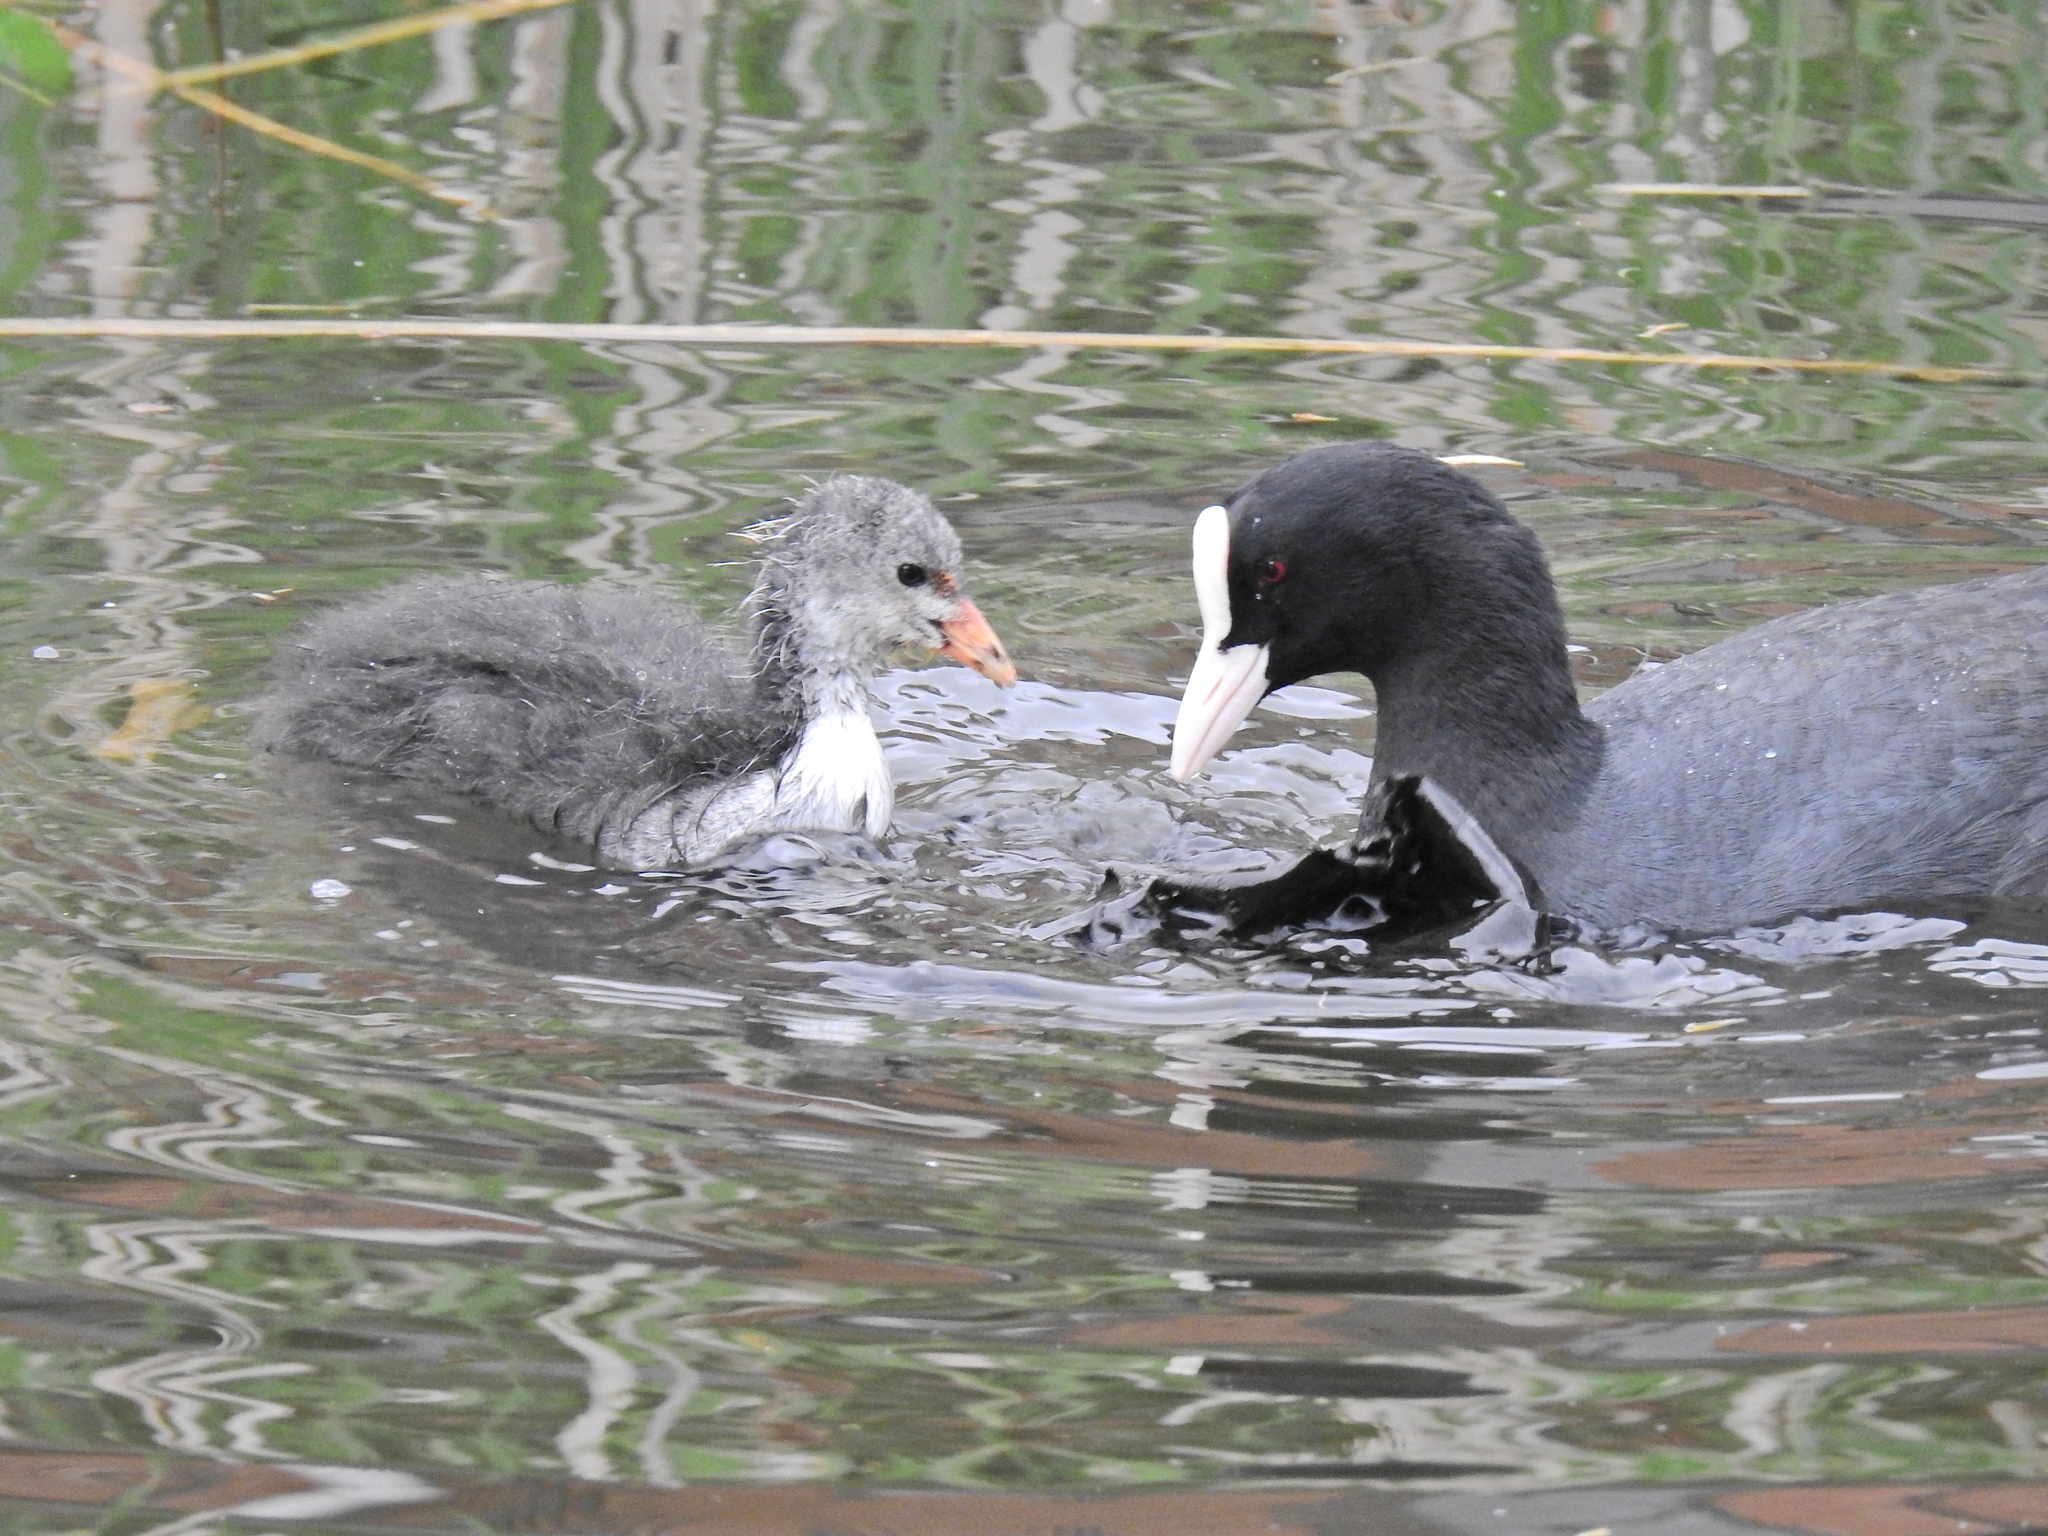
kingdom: Animalia
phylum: Chordata
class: Aves
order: Gruiformes
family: Rallidae
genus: Fulica
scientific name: Fulica atra
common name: Eurasian coot
